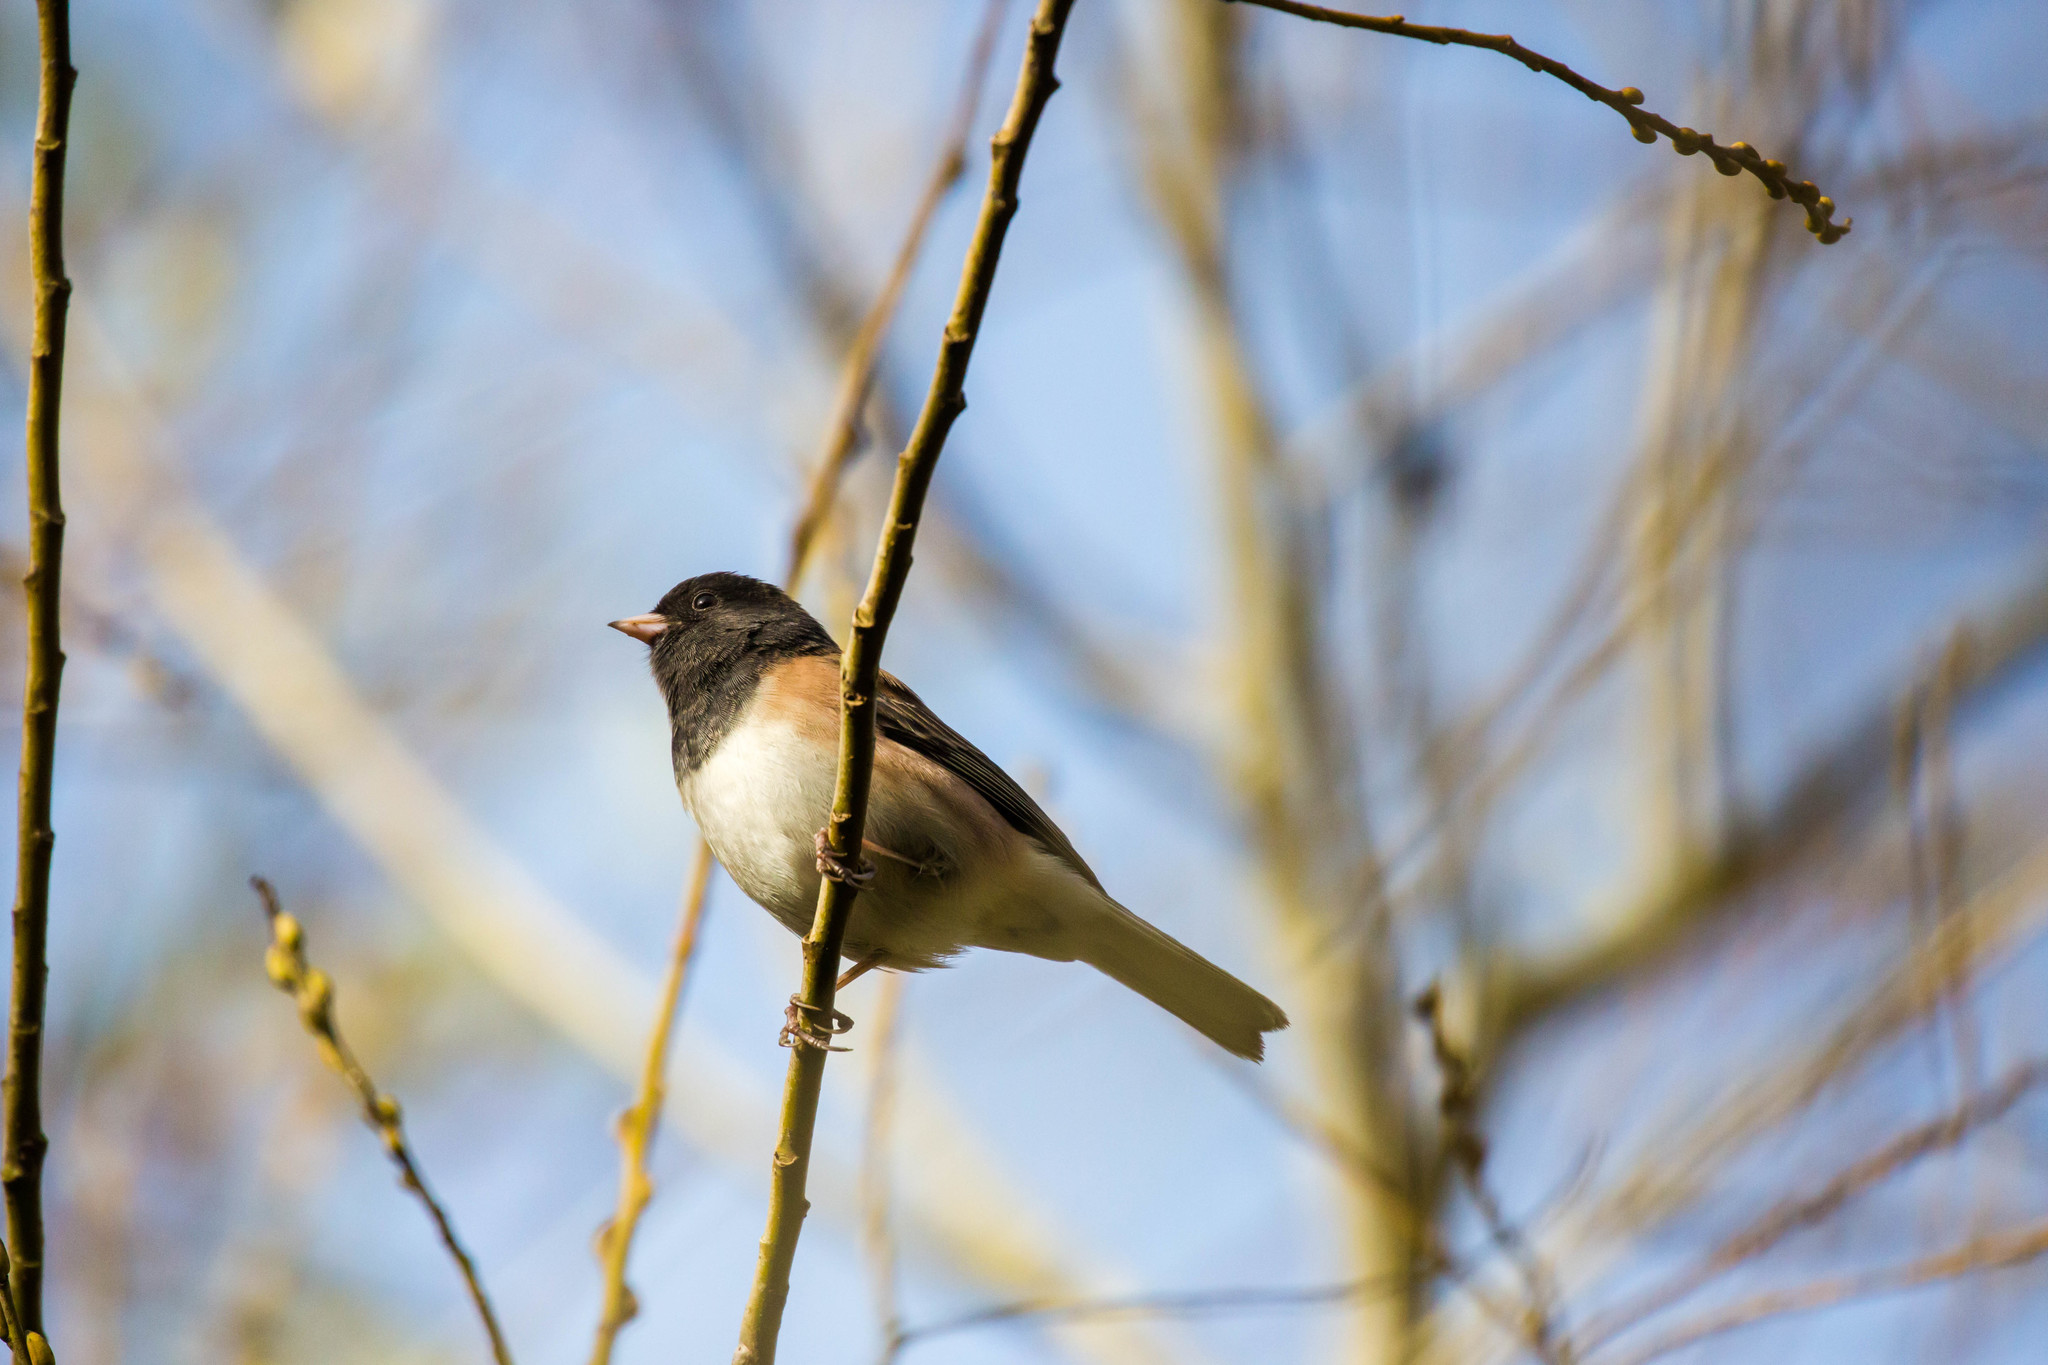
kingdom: Animalia
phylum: Chordata
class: Aves
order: Passeriformes
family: Passerellidae
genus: Junco
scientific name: Junco hyemalis
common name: Dark-eyed junco
